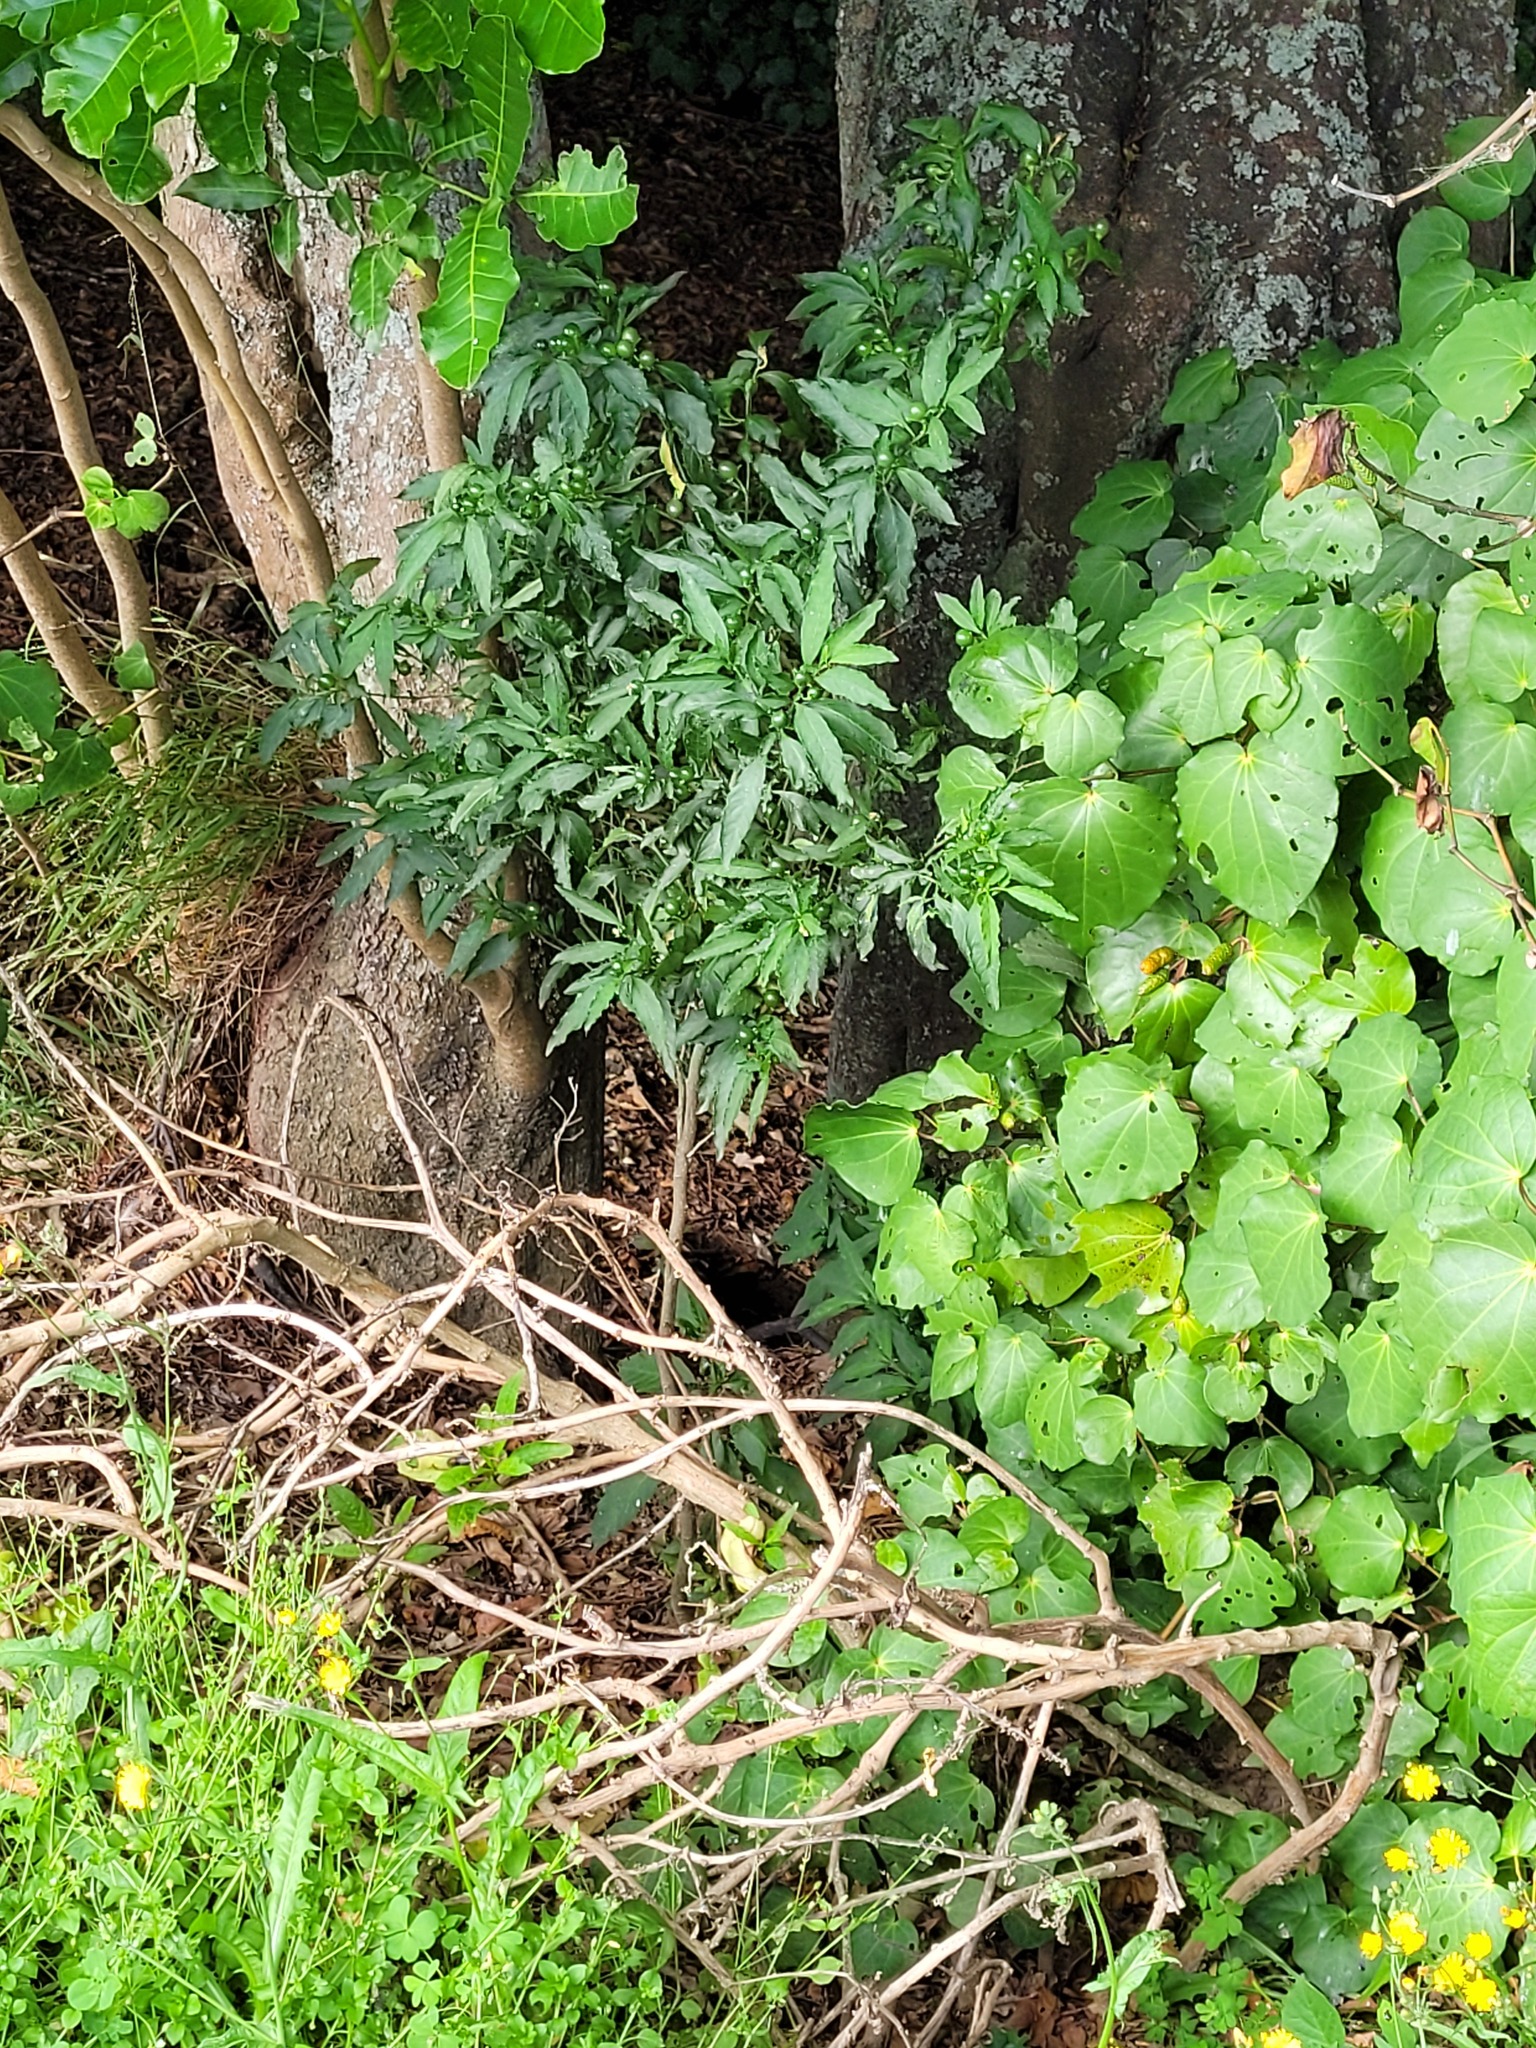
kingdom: Plantae
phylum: Tracheophyta
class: Magnoliopsida
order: Solanales
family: Solanaceae
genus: Solanum
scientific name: Solanum pseudocapsicum
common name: Jerusalem cherry
